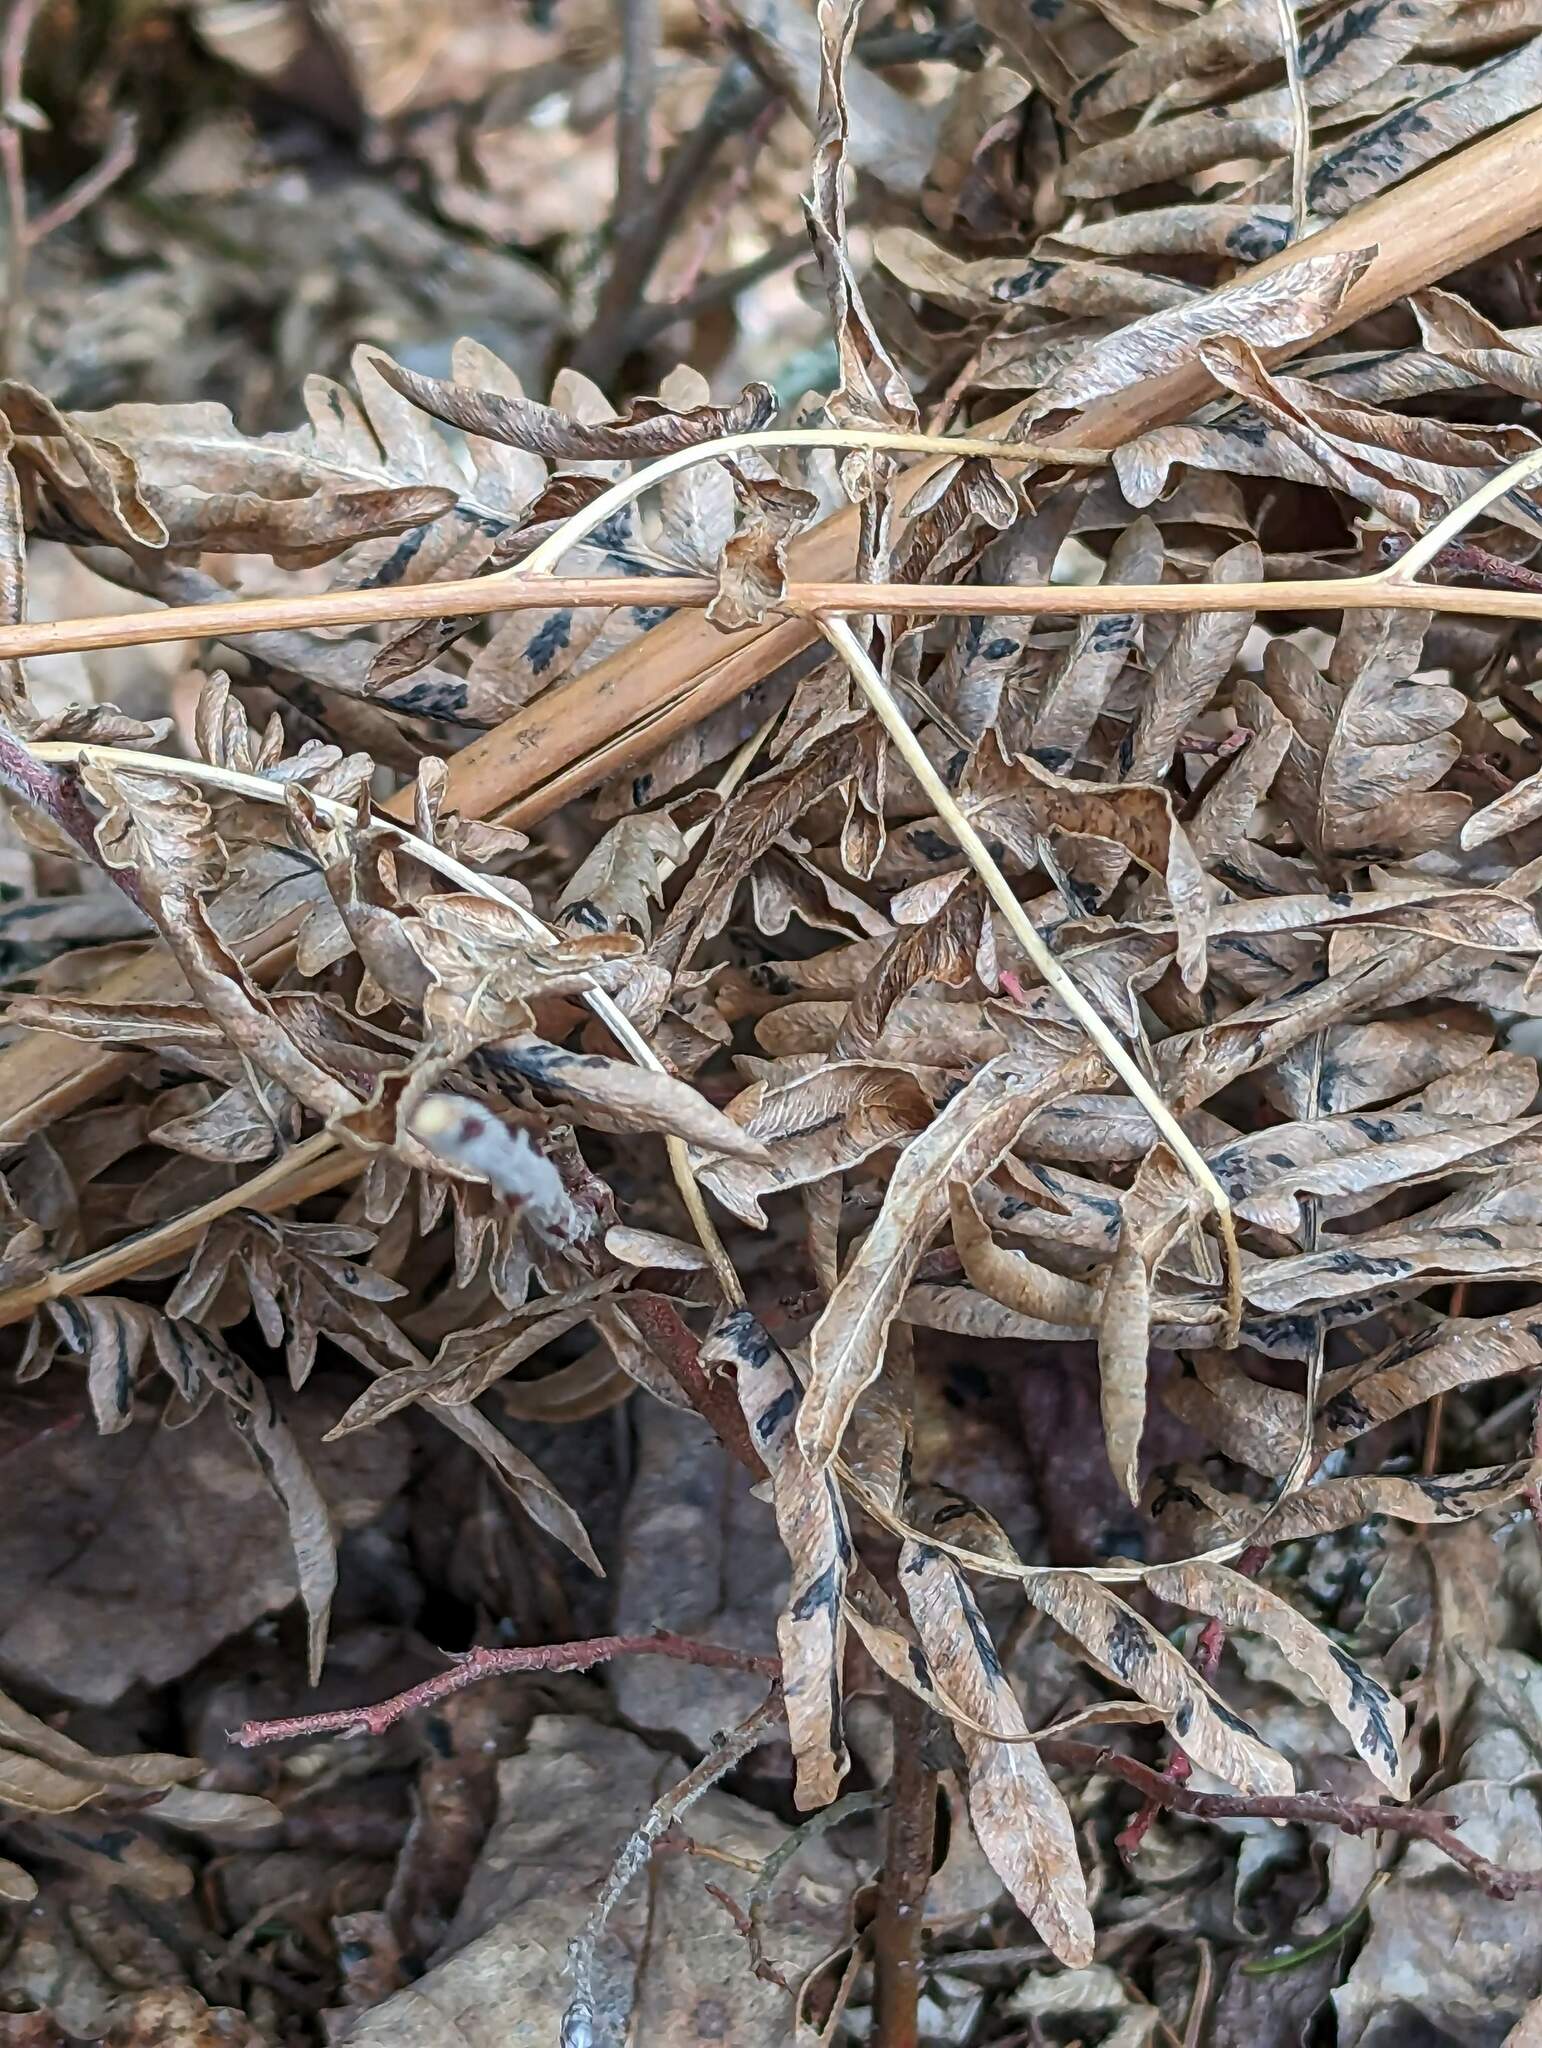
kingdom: Plantae
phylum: Tracheophyta
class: Polypodiopsida
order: Polypodiales
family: Dennstaedtiaceae
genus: Pteridium
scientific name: Pteridium aquilinum
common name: Bracken
